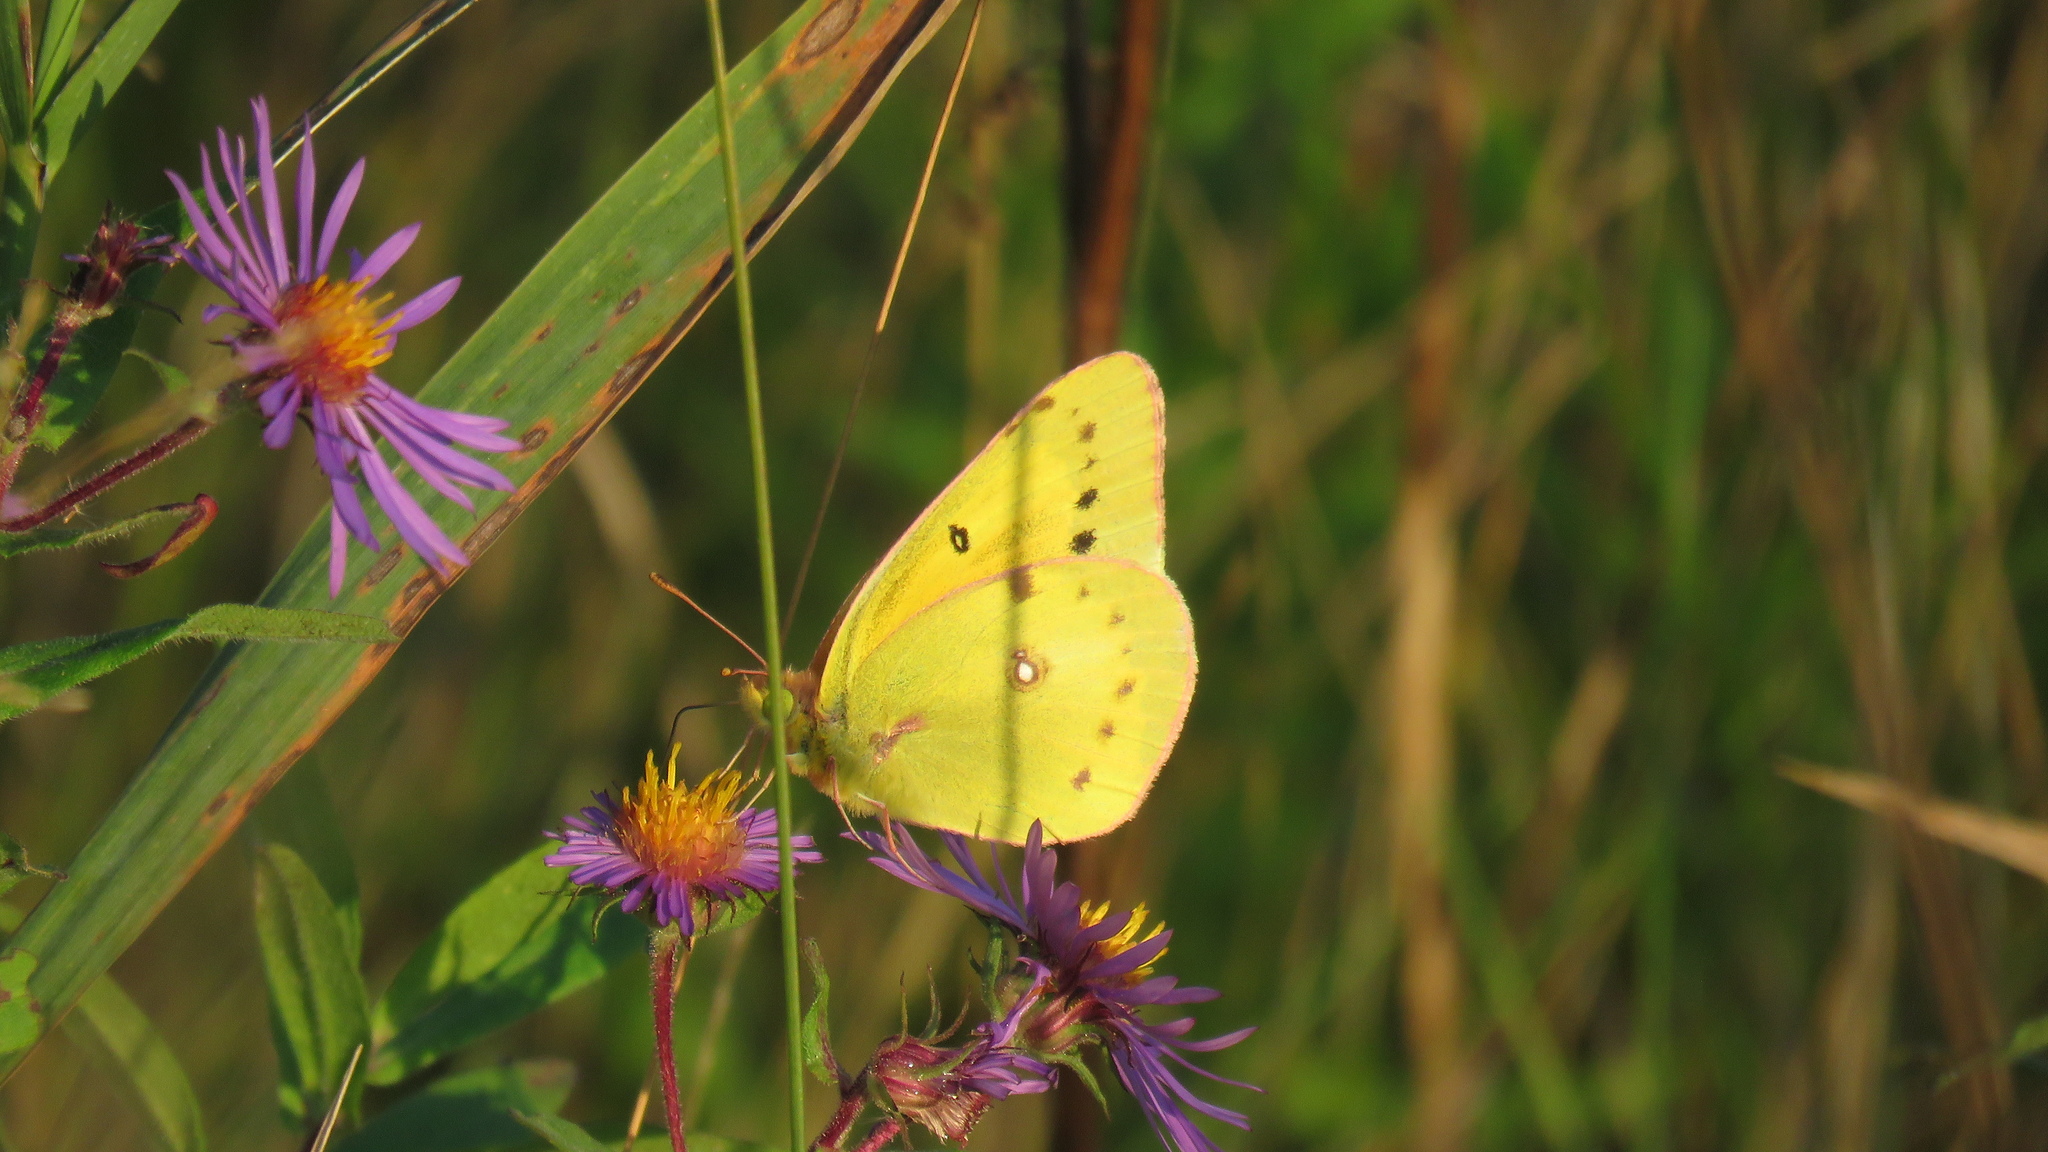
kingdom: Animalia
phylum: Arthropoda
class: Insecta
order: Lepidoptera
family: Pieridae
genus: Colias
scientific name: Colias eurytheme
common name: Alfalfa butterfly
